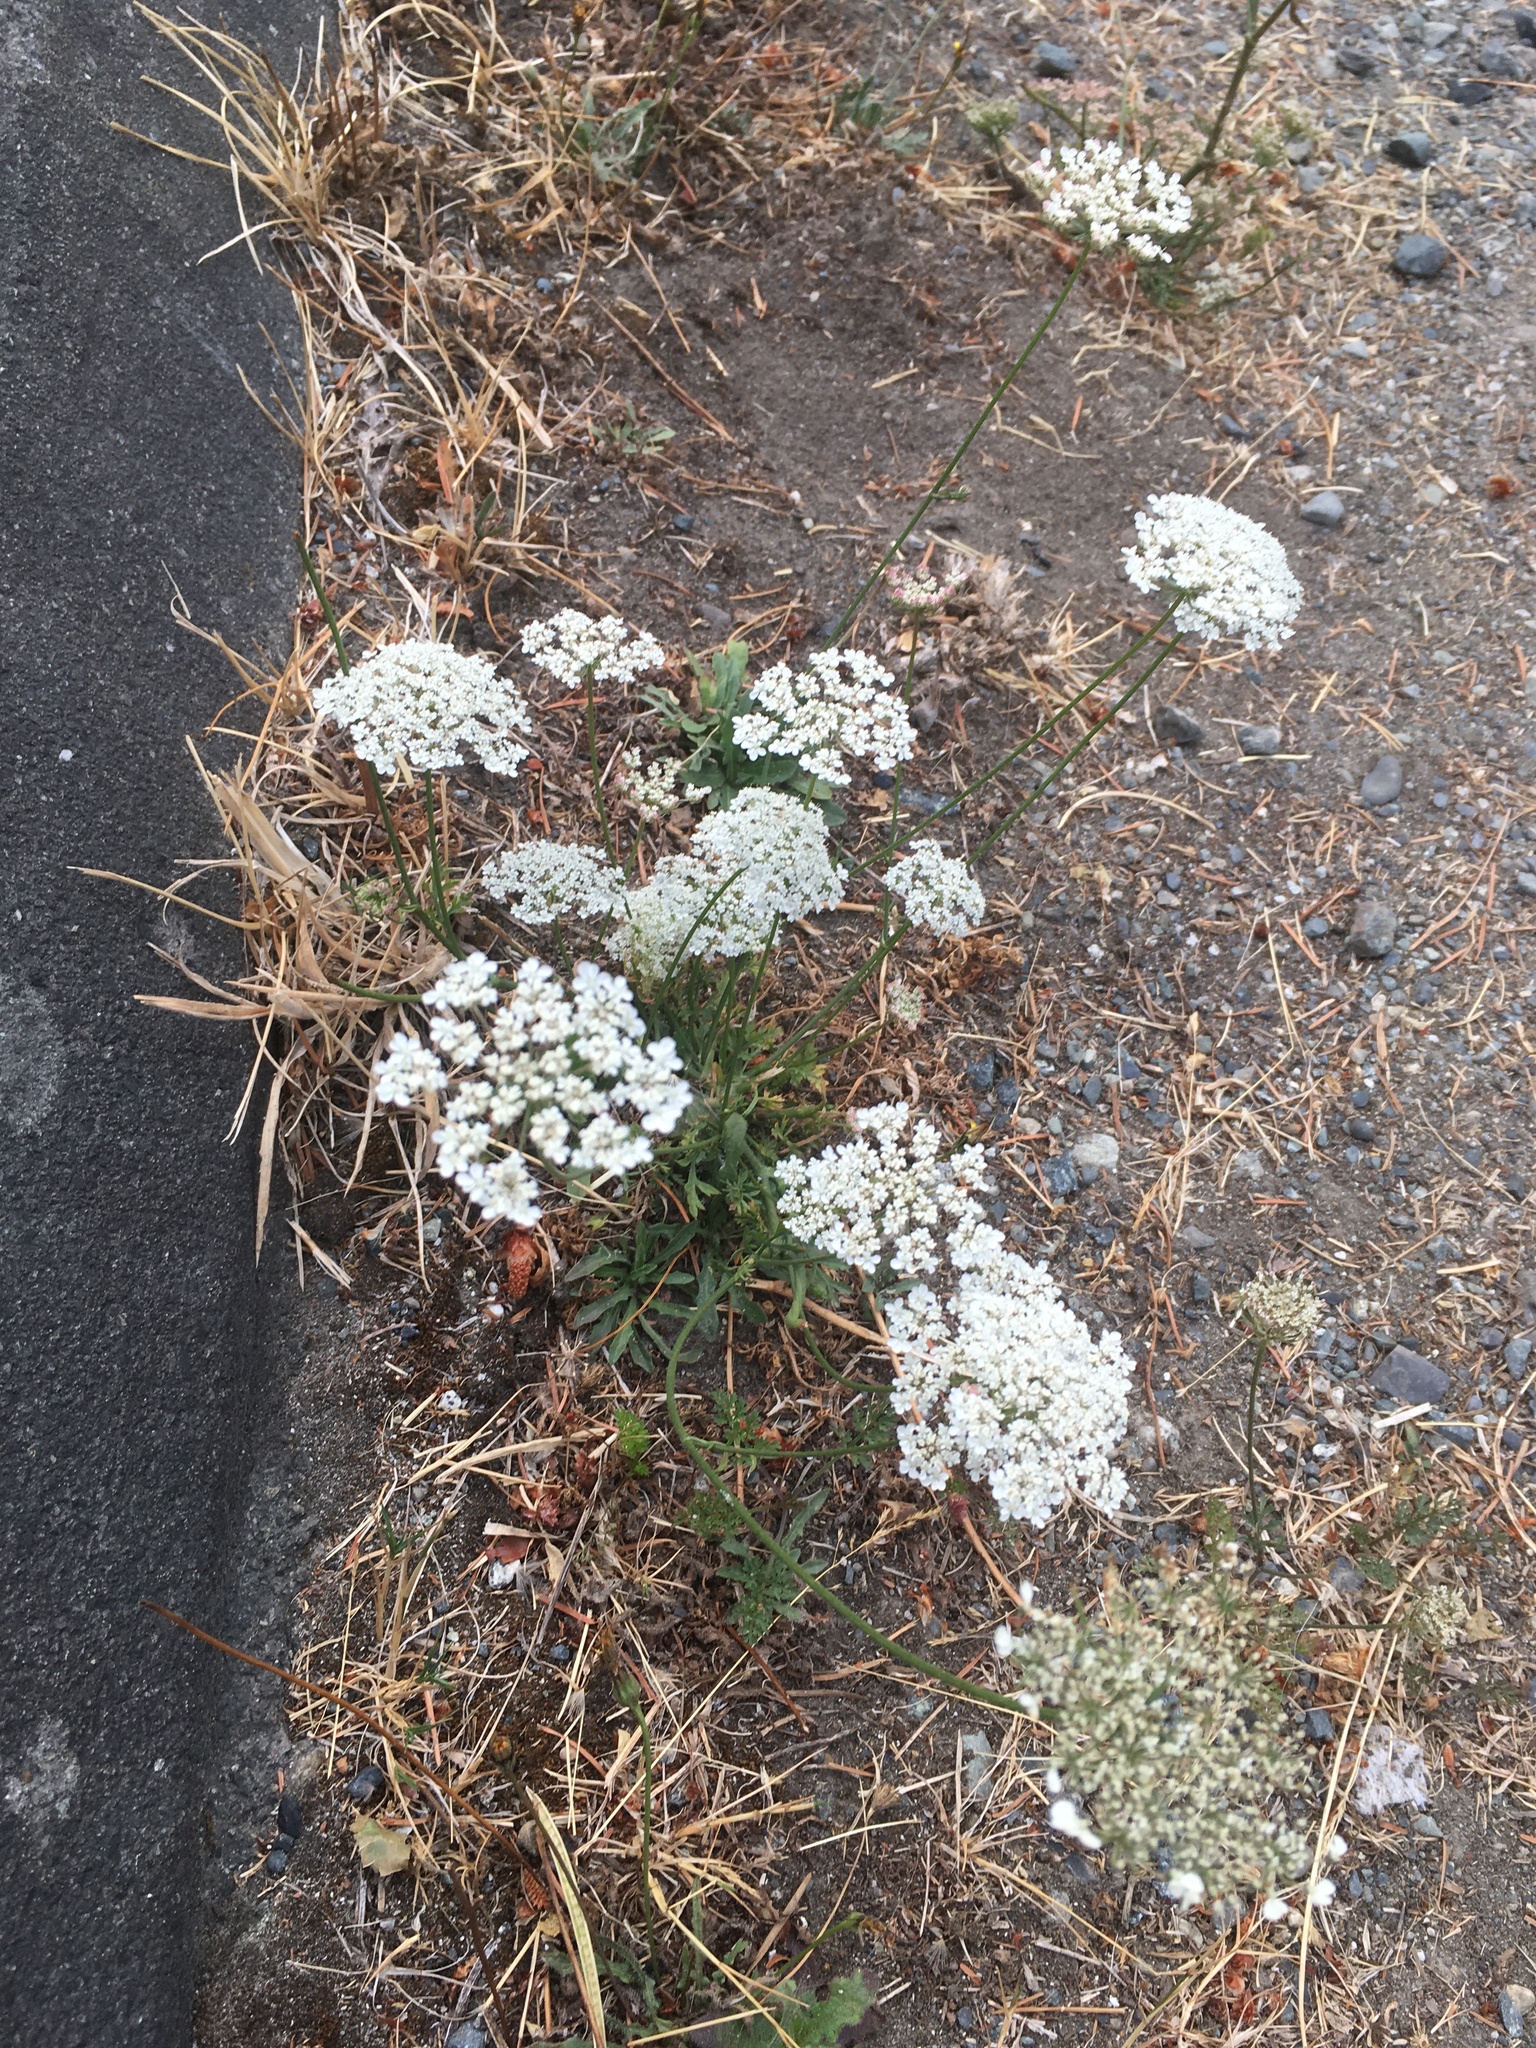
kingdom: Plantae
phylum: Tracheophyta
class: Magnoliopsida
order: Apiales
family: Apiaceae
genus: Daucus
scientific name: Daucus carota
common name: Wild carrot
